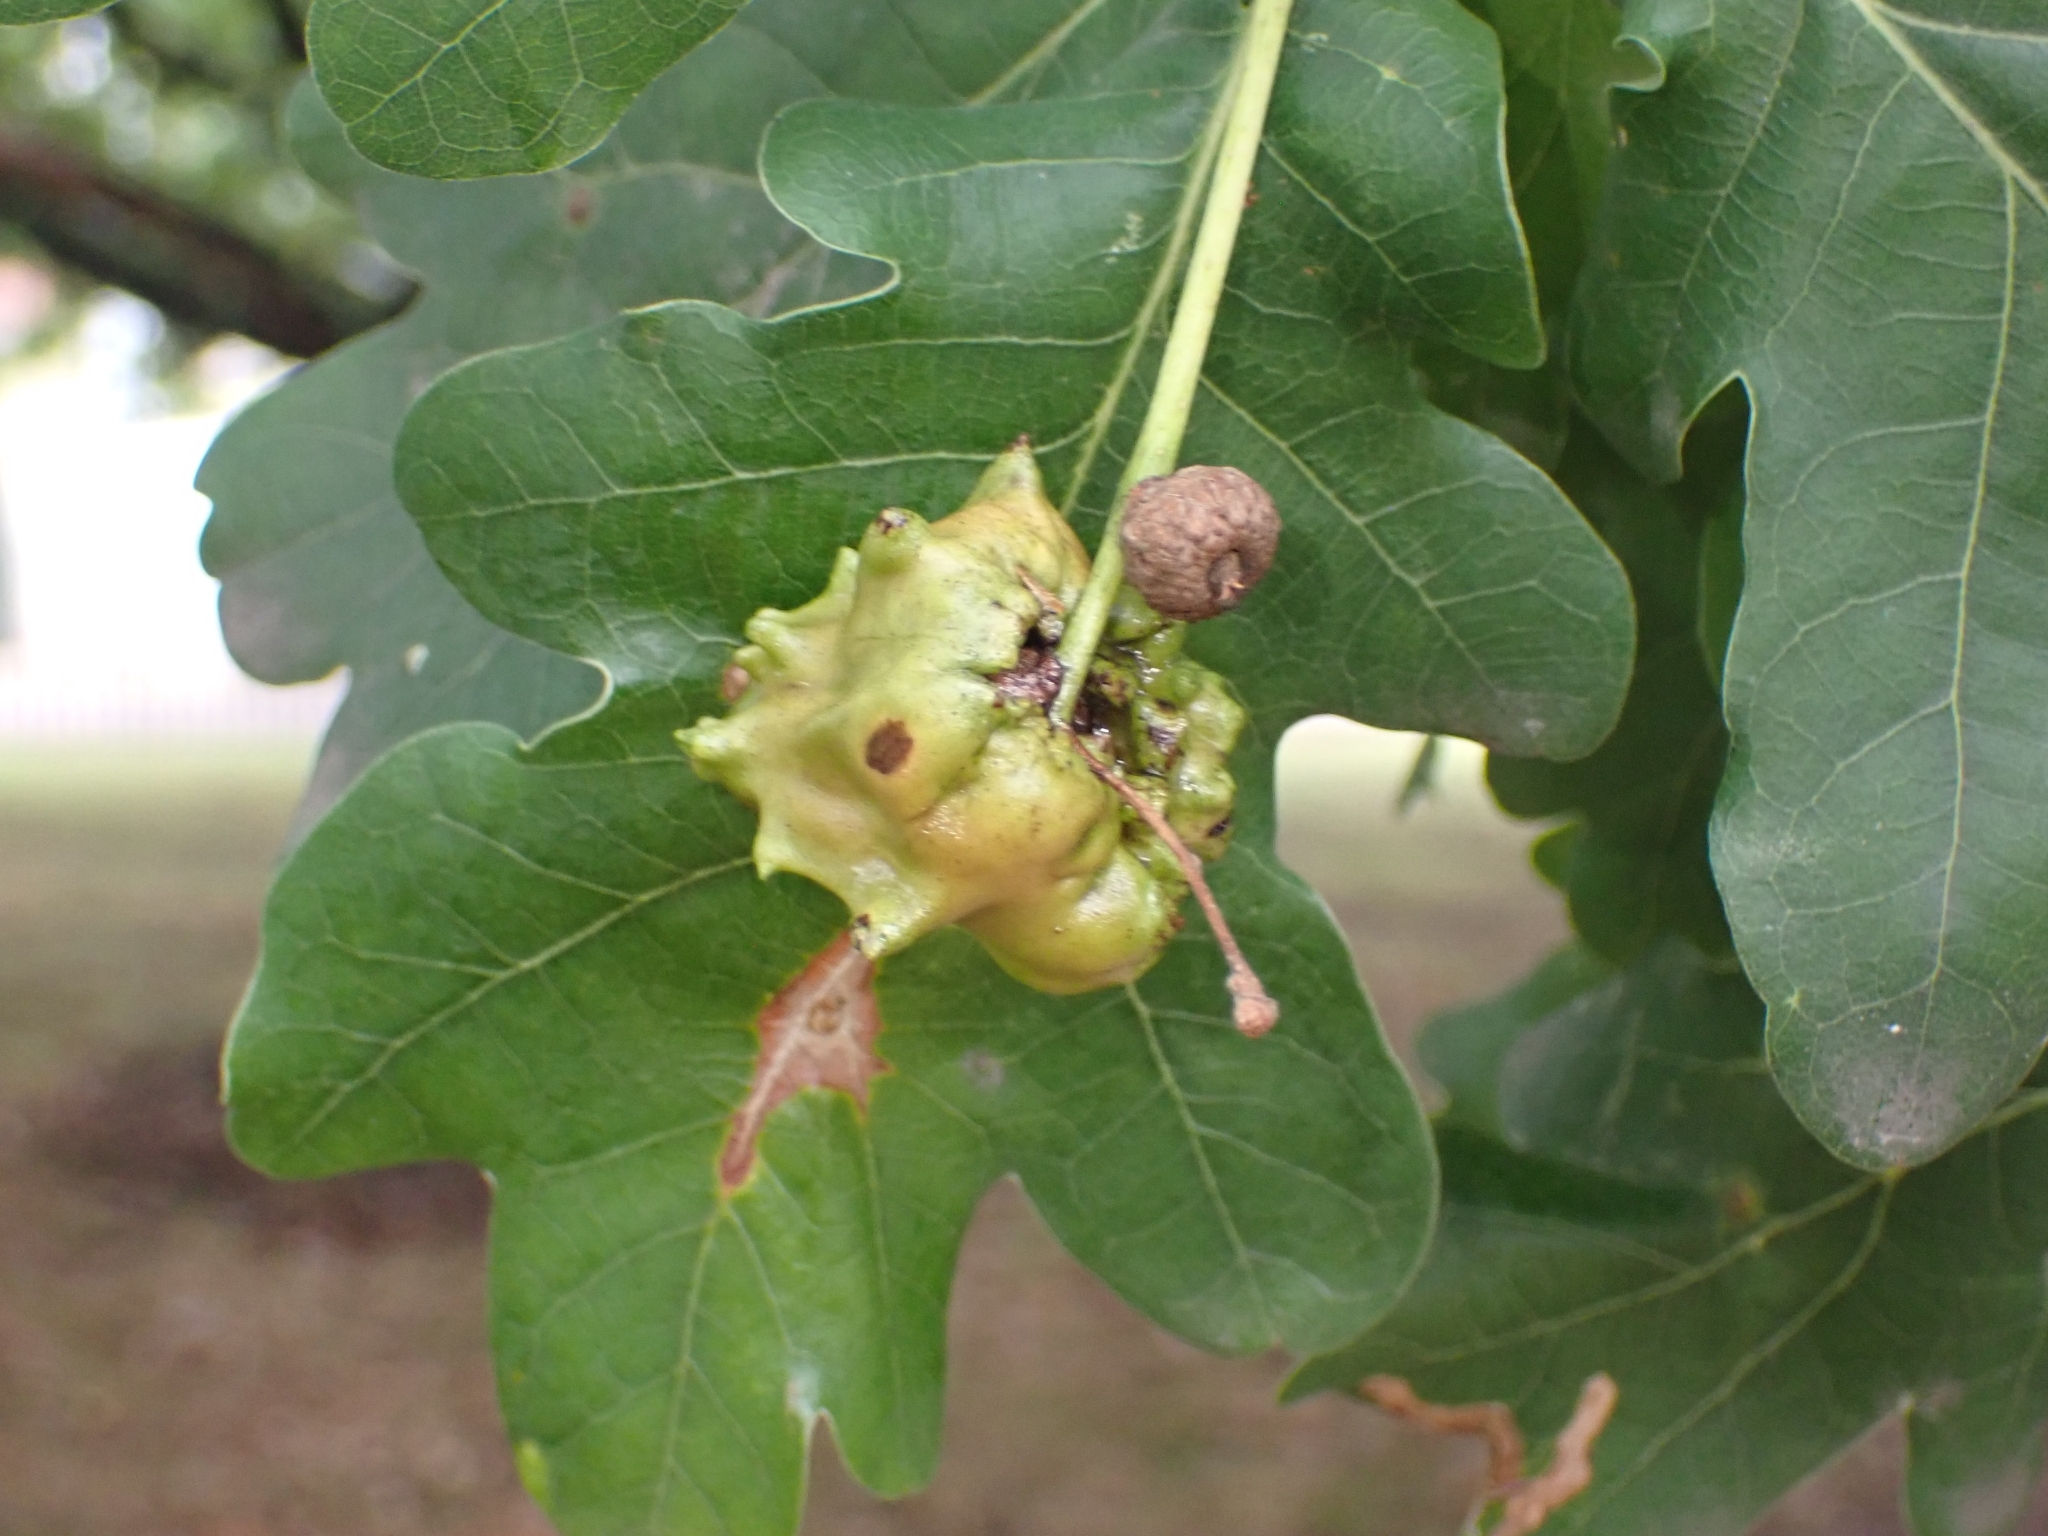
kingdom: Animalia
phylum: Arthropoda
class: Insecta
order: Hymenoptera
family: Cynipidae
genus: Andricus
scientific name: Andricus quercuscalicis
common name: Knopper gall
